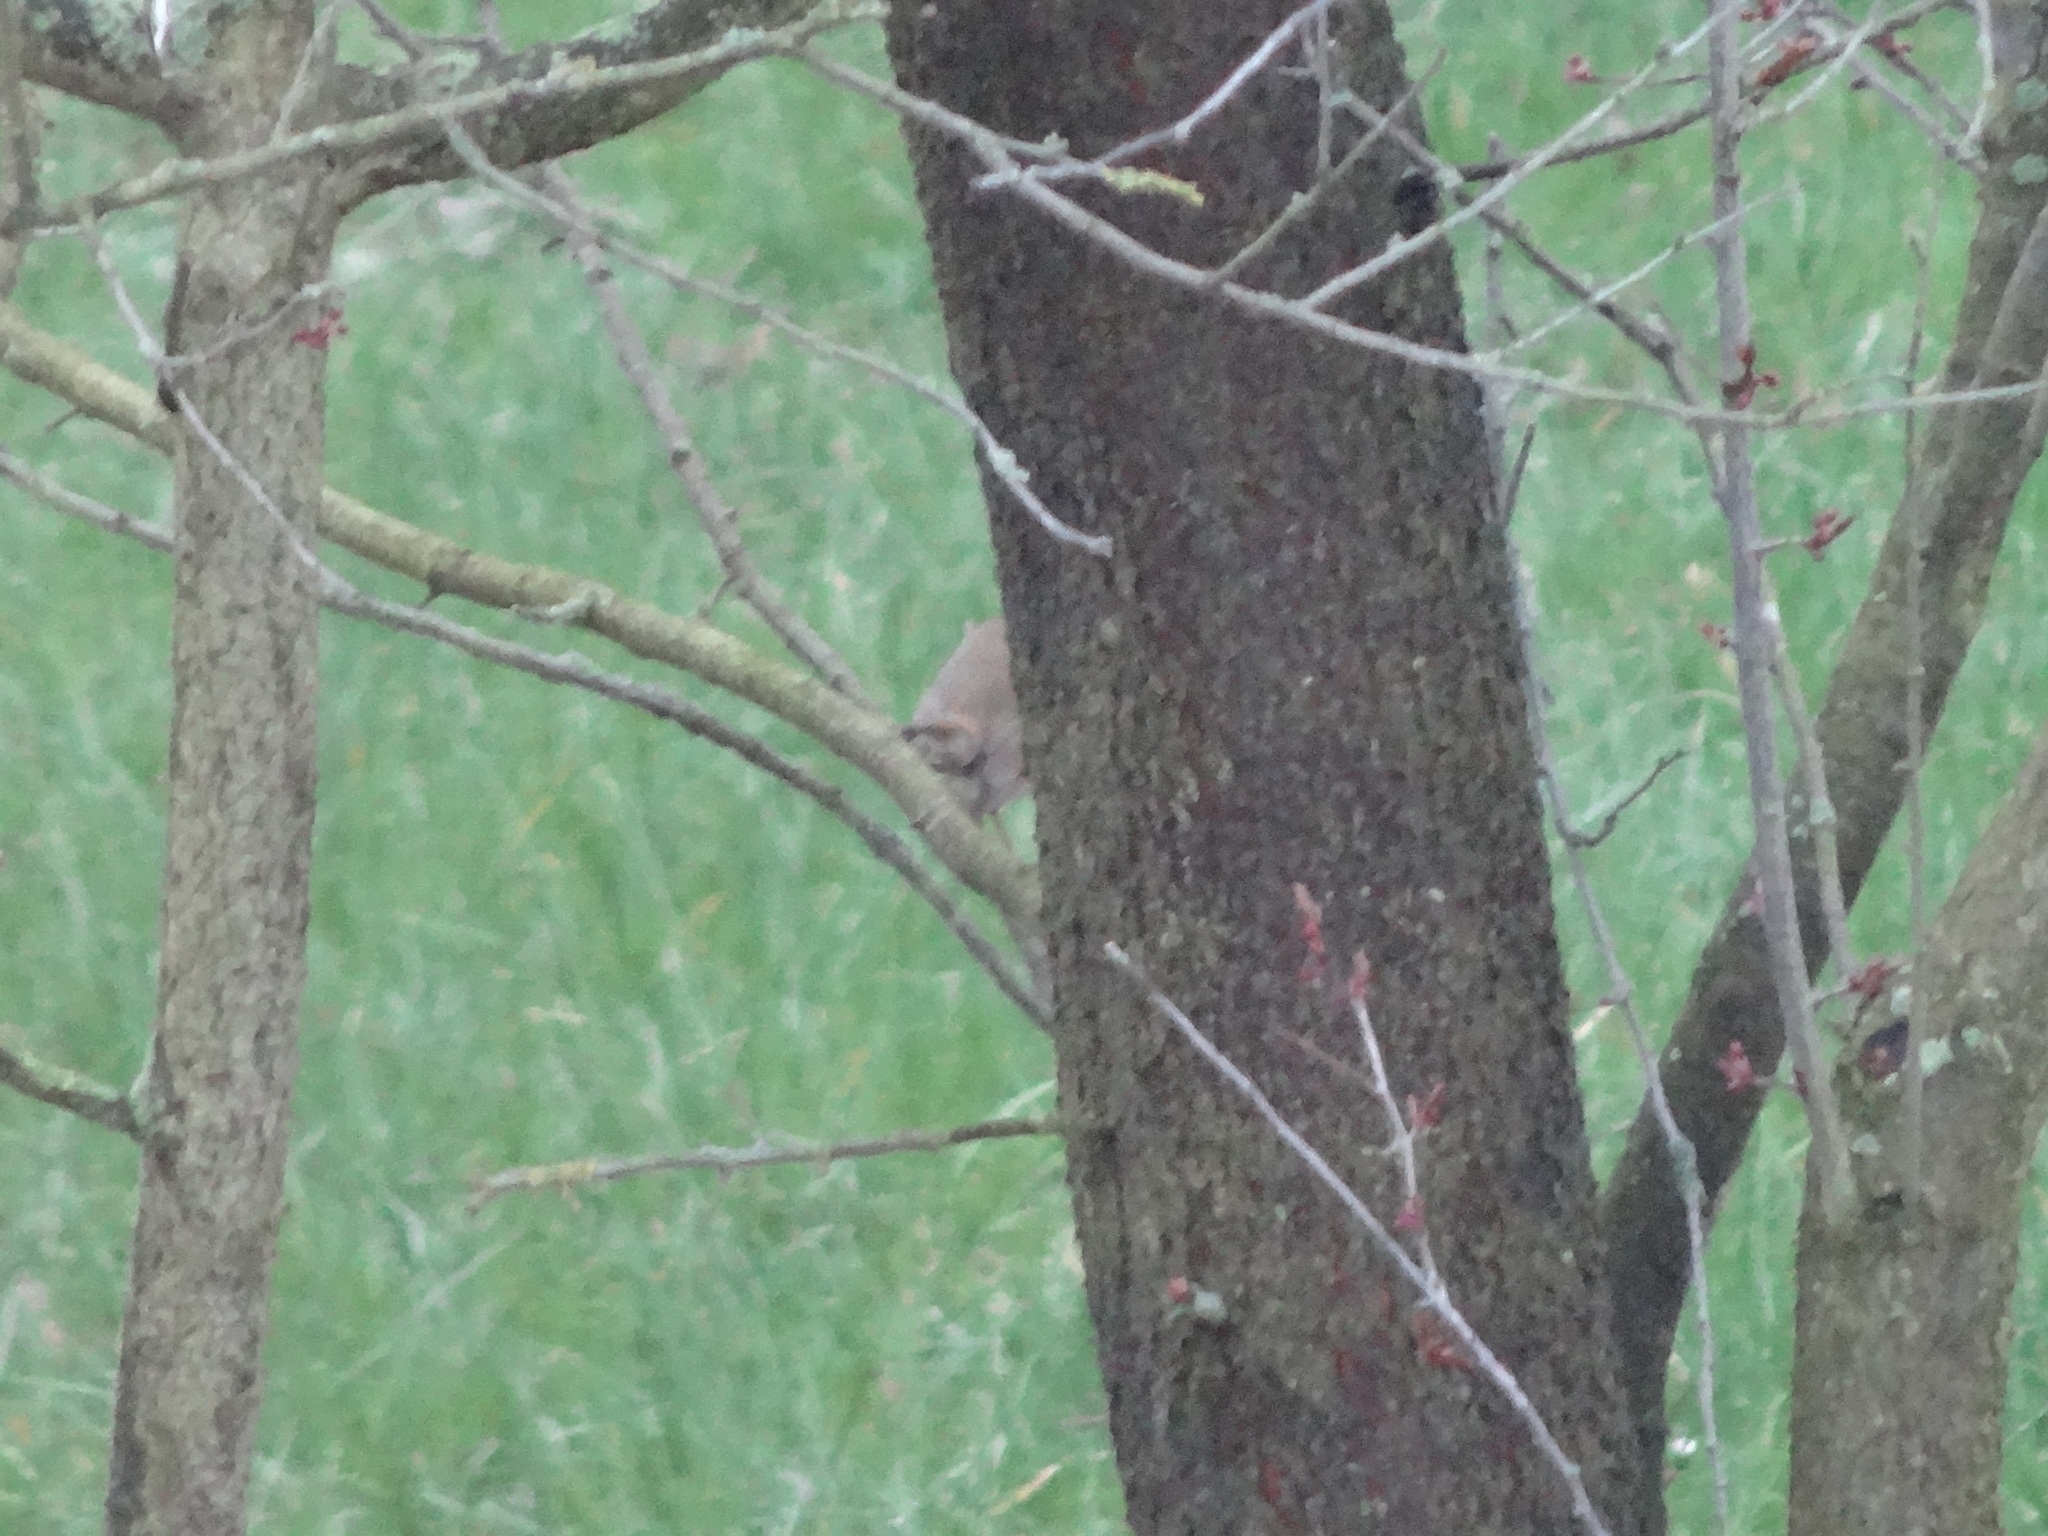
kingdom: Animalia
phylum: Chordata
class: Aves
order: Passeriformes
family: Muscicapidae
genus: Erithacus
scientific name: Erithacus rubecula
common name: European robin
